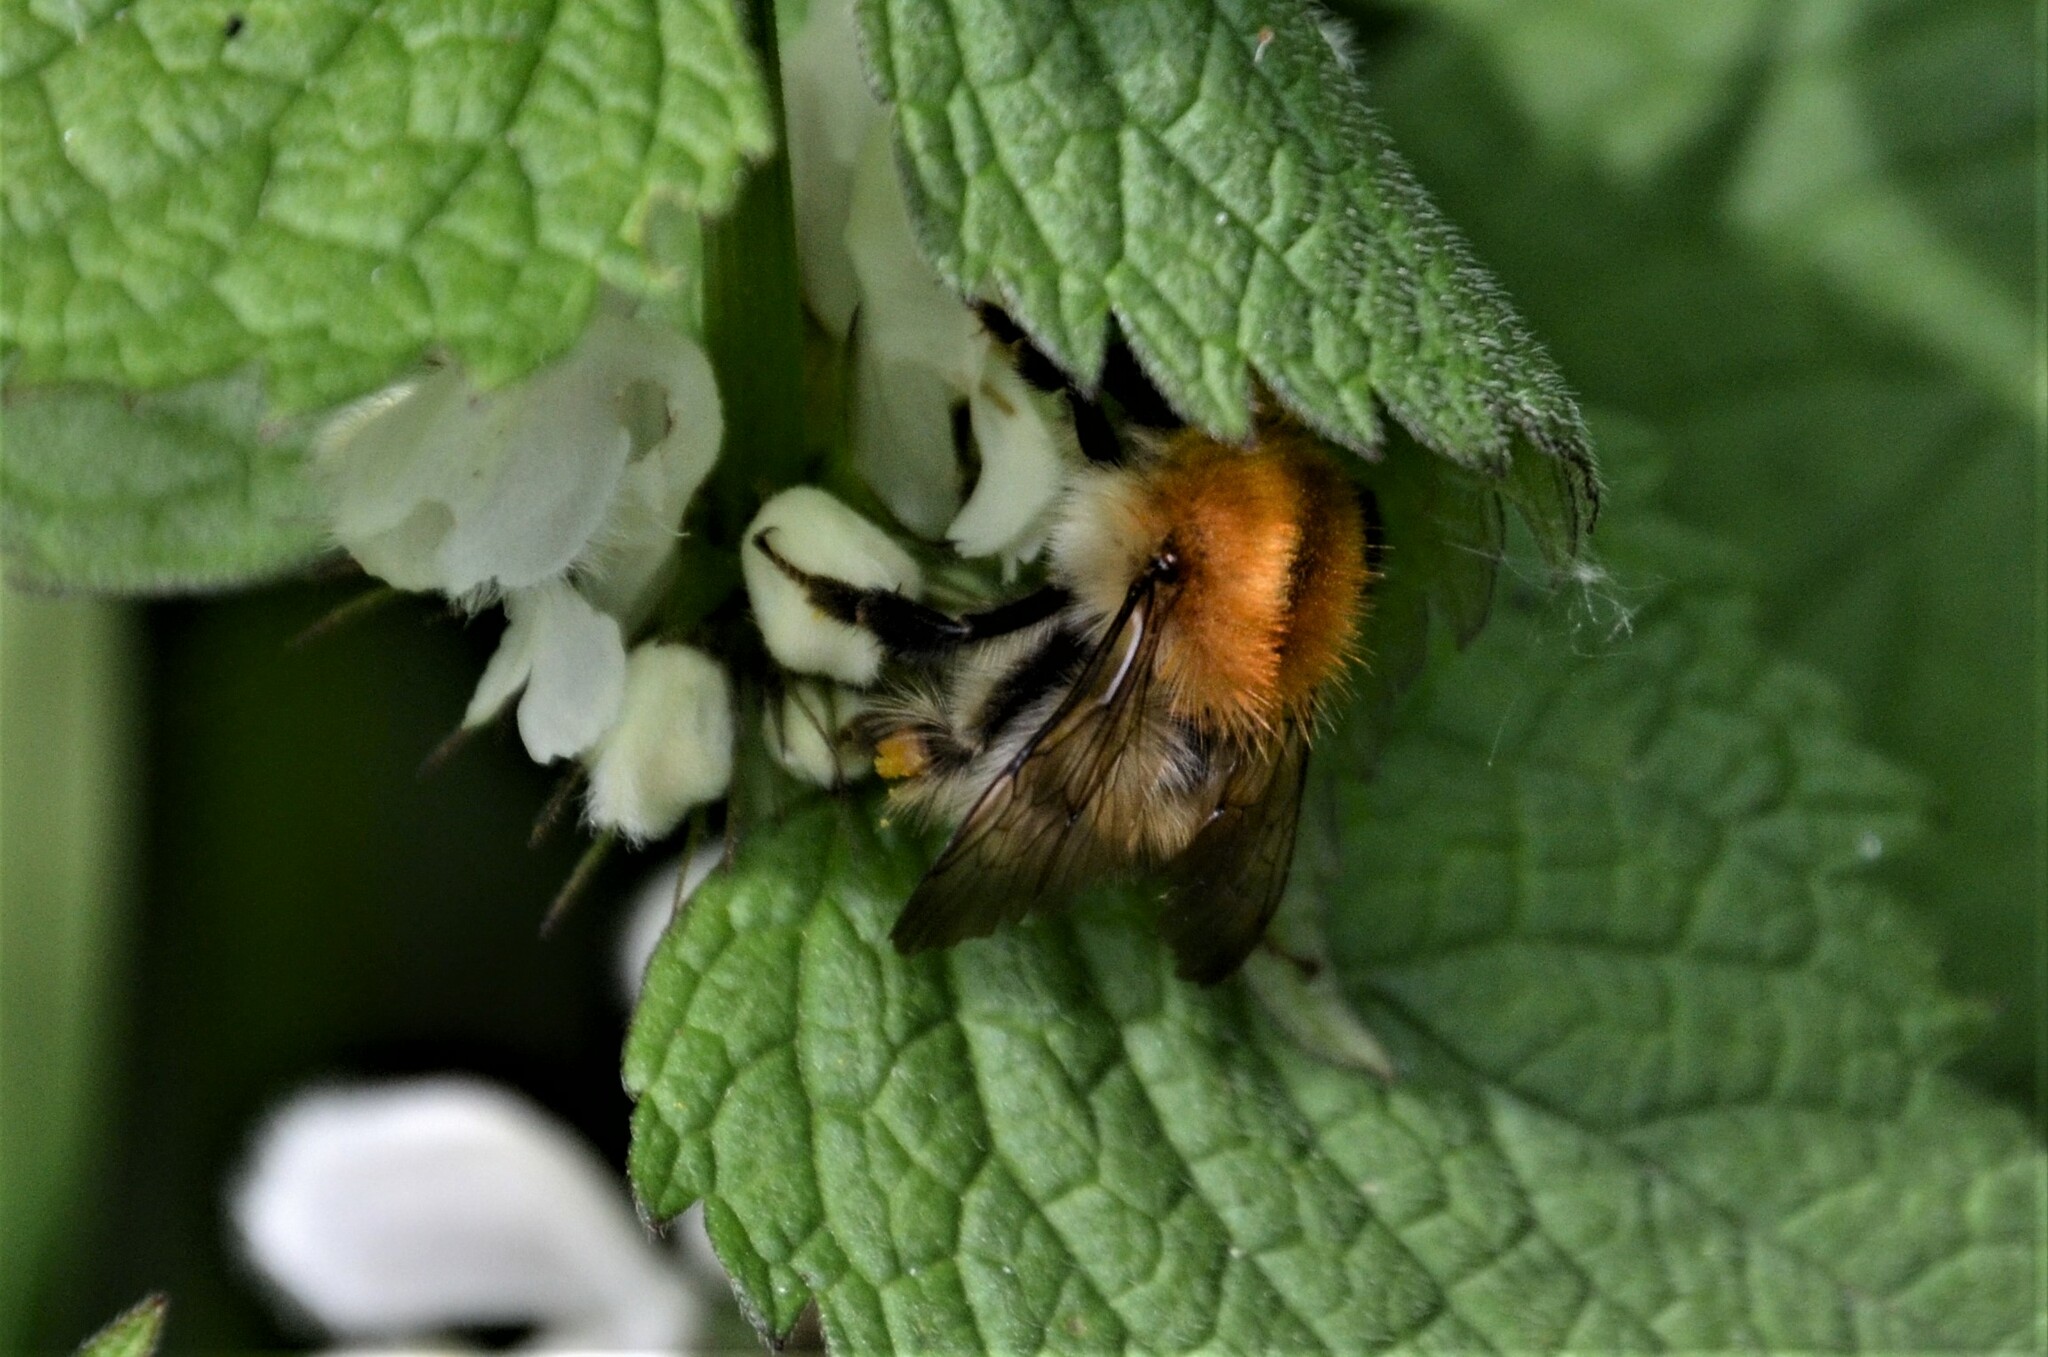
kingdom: Animalia
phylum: Arthropoda
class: Insecta
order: Hymenoptera
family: Apidae
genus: Bombus
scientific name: Bombus pascuorum
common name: Common carder bee
